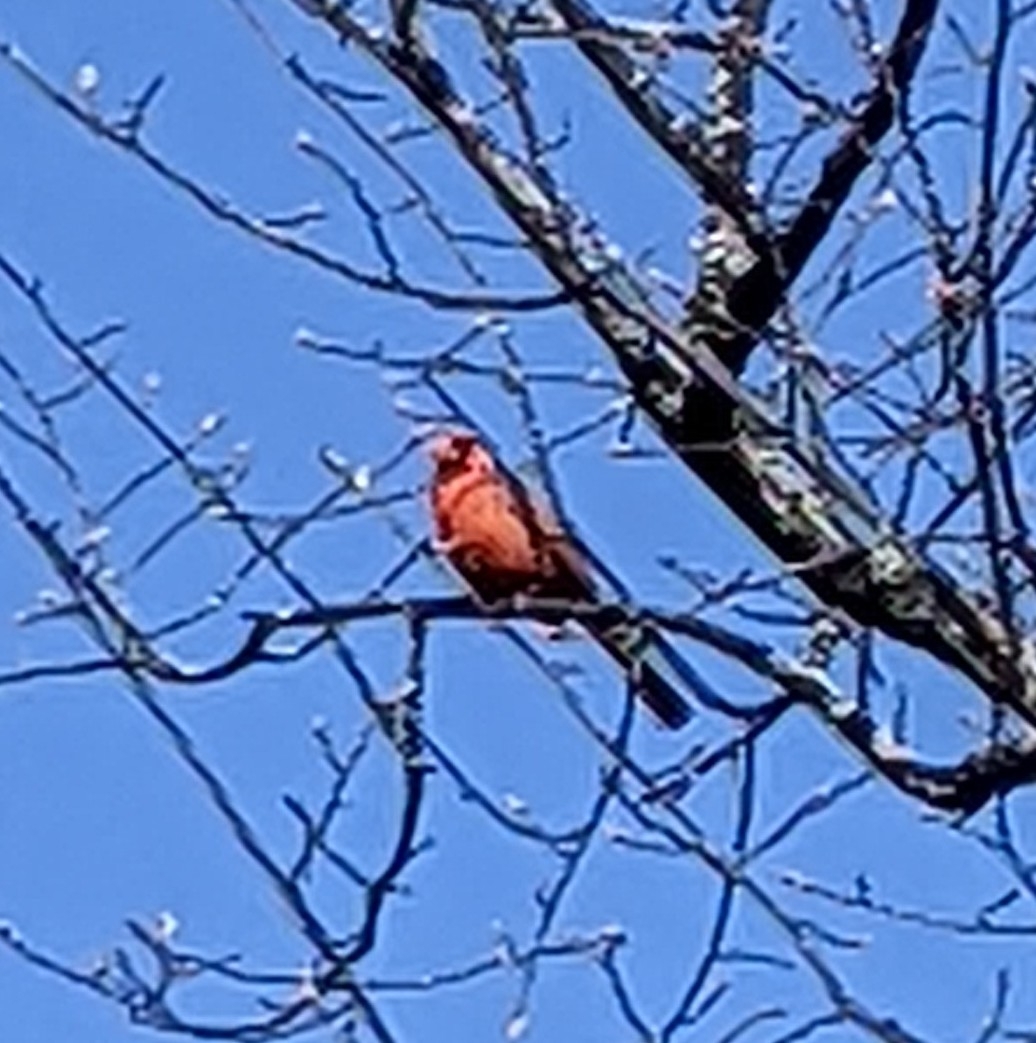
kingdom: Animalia
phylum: Chordata
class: Aves
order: Passeriformes
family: Cardinalidae
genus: Cardinalis
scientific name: Cardinalis cardinalis
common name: Northern cardinal
